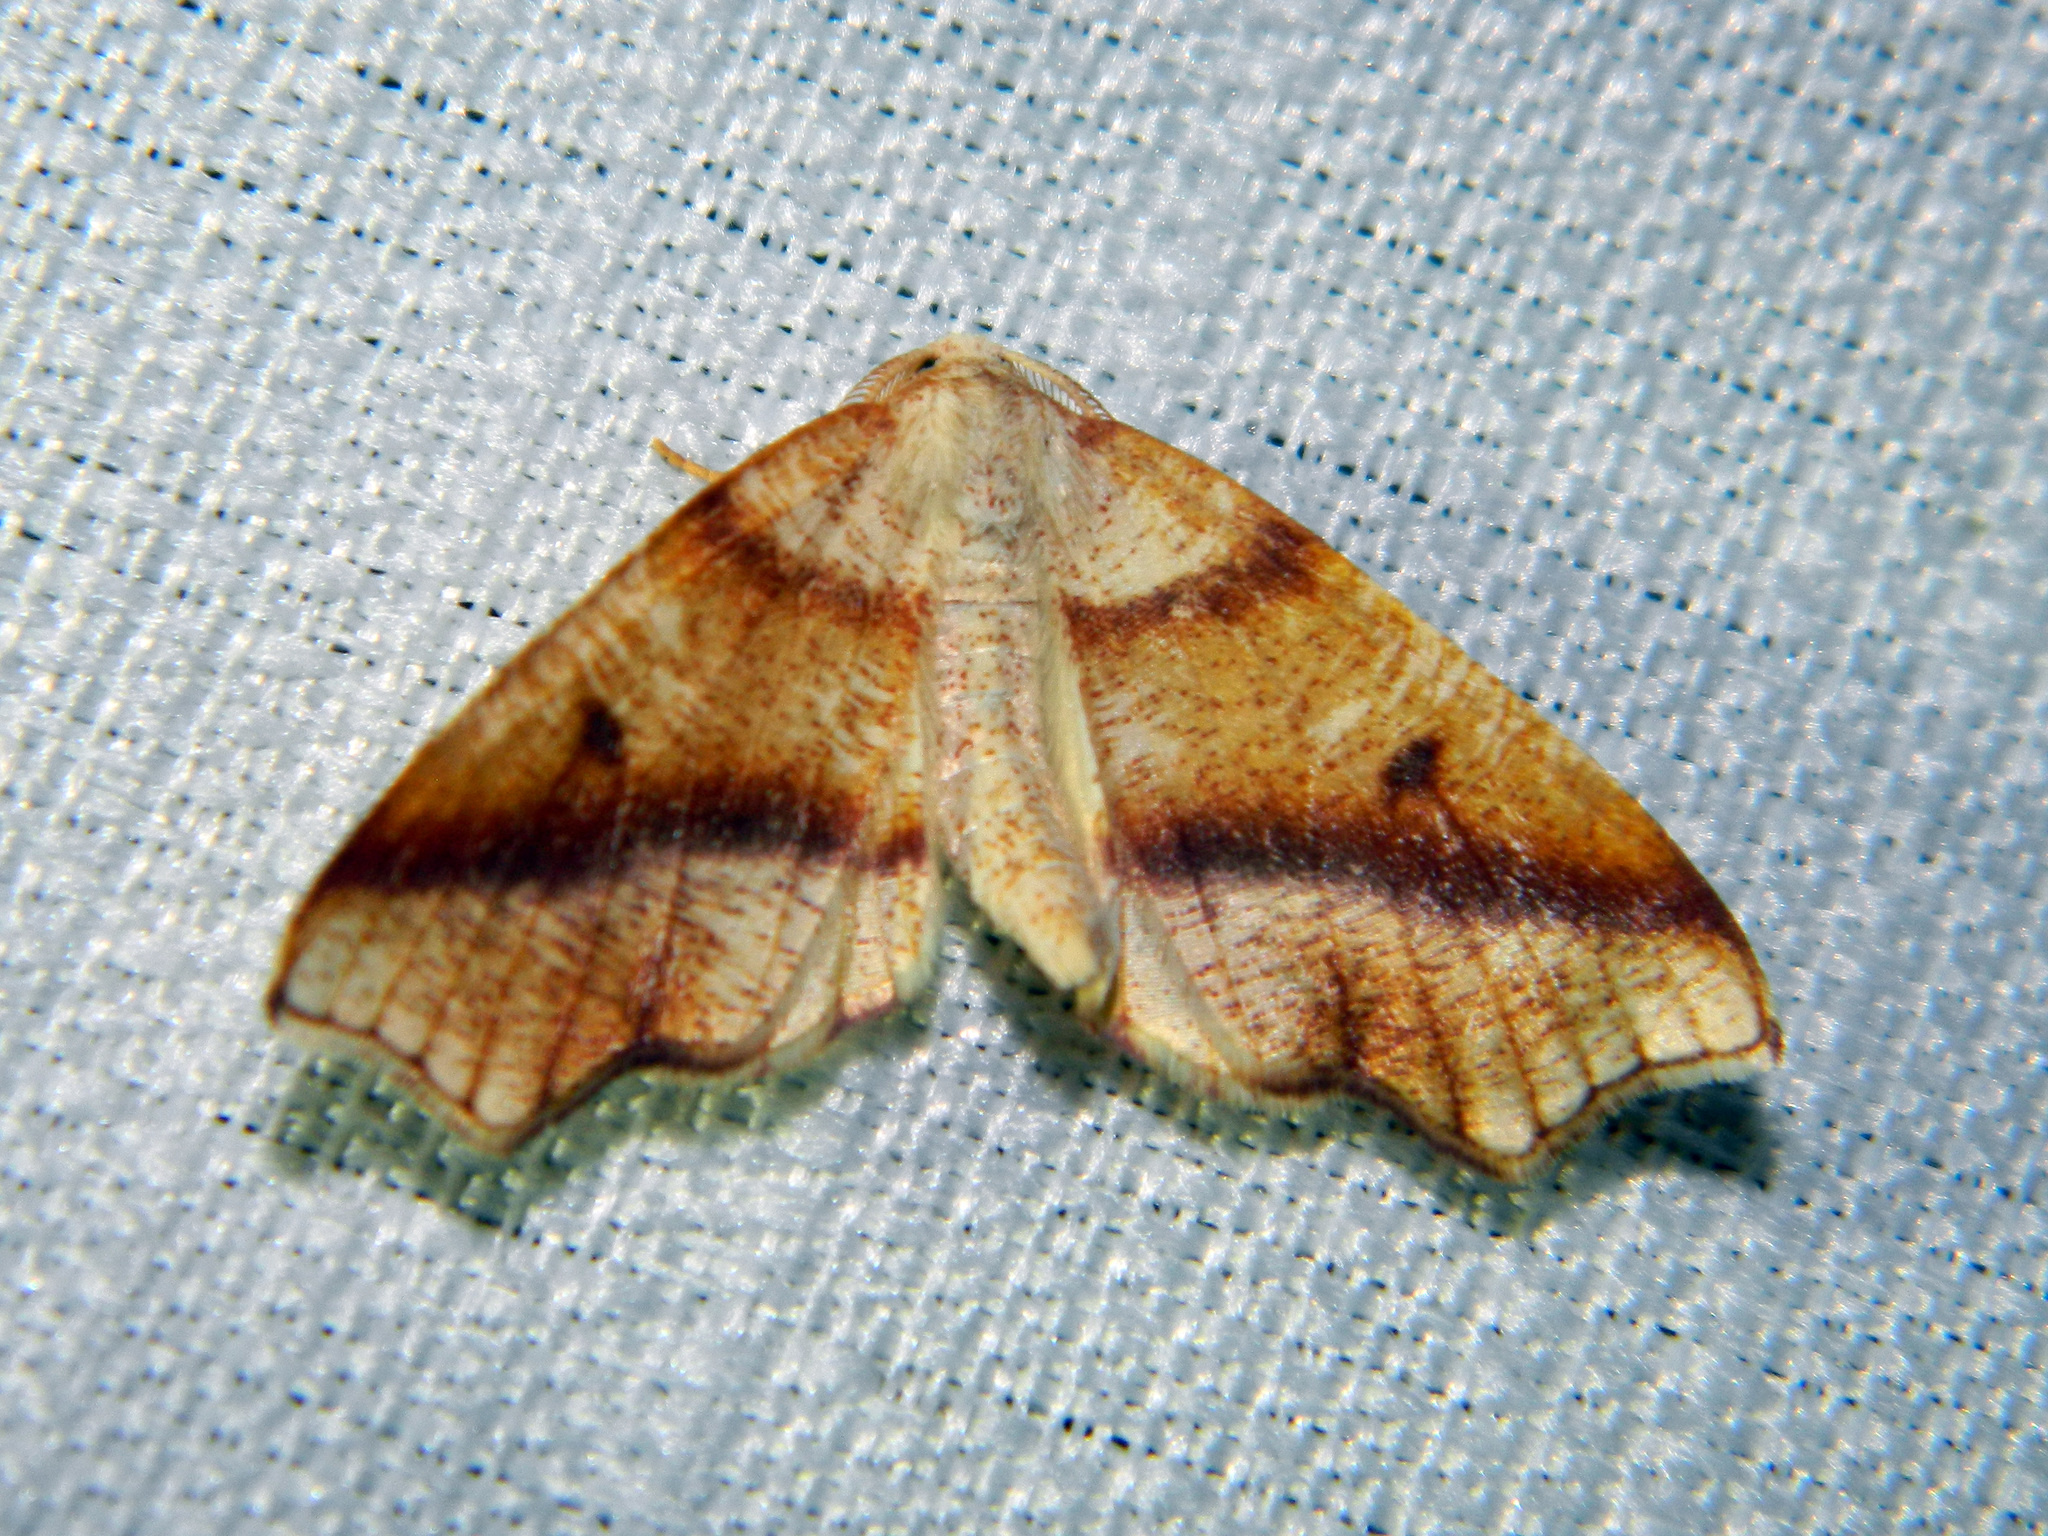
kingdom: Animalia
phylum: Arthropoda
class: Insecta
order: Lepidoptera
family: Geometridae
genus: Plagodis
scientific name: Plagodis alcoolaria
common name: Hollow-spotted plagodis
